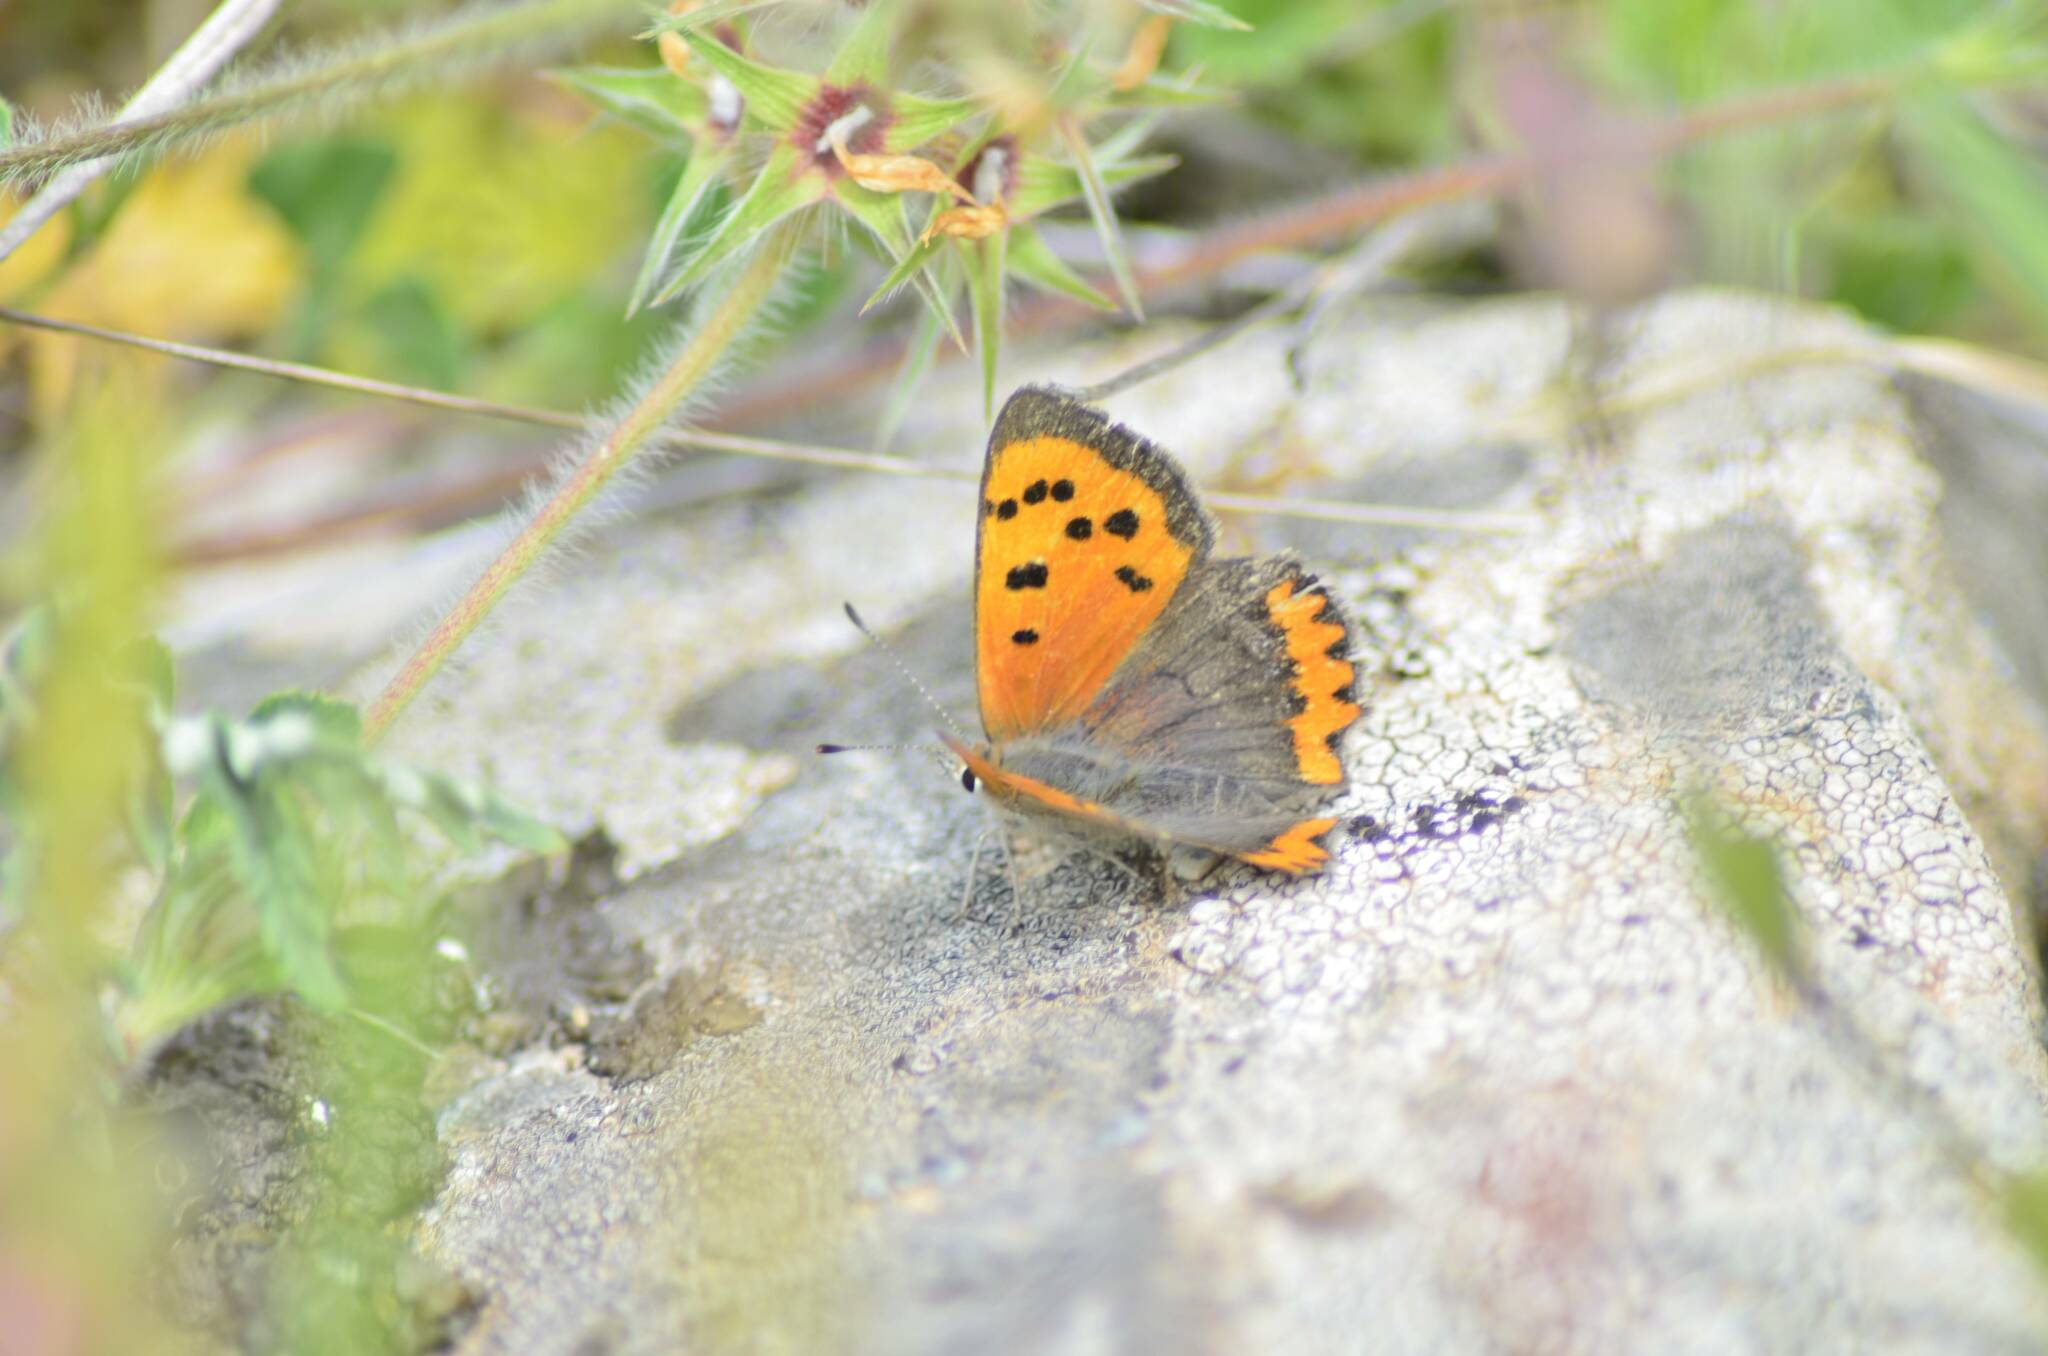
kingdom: Animalia
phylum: Arthropoda
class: Insecta
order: Lepidoptera
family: Lycaenidae
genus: Lycaena
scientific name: Lycaena phlaeas
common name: Small copper
